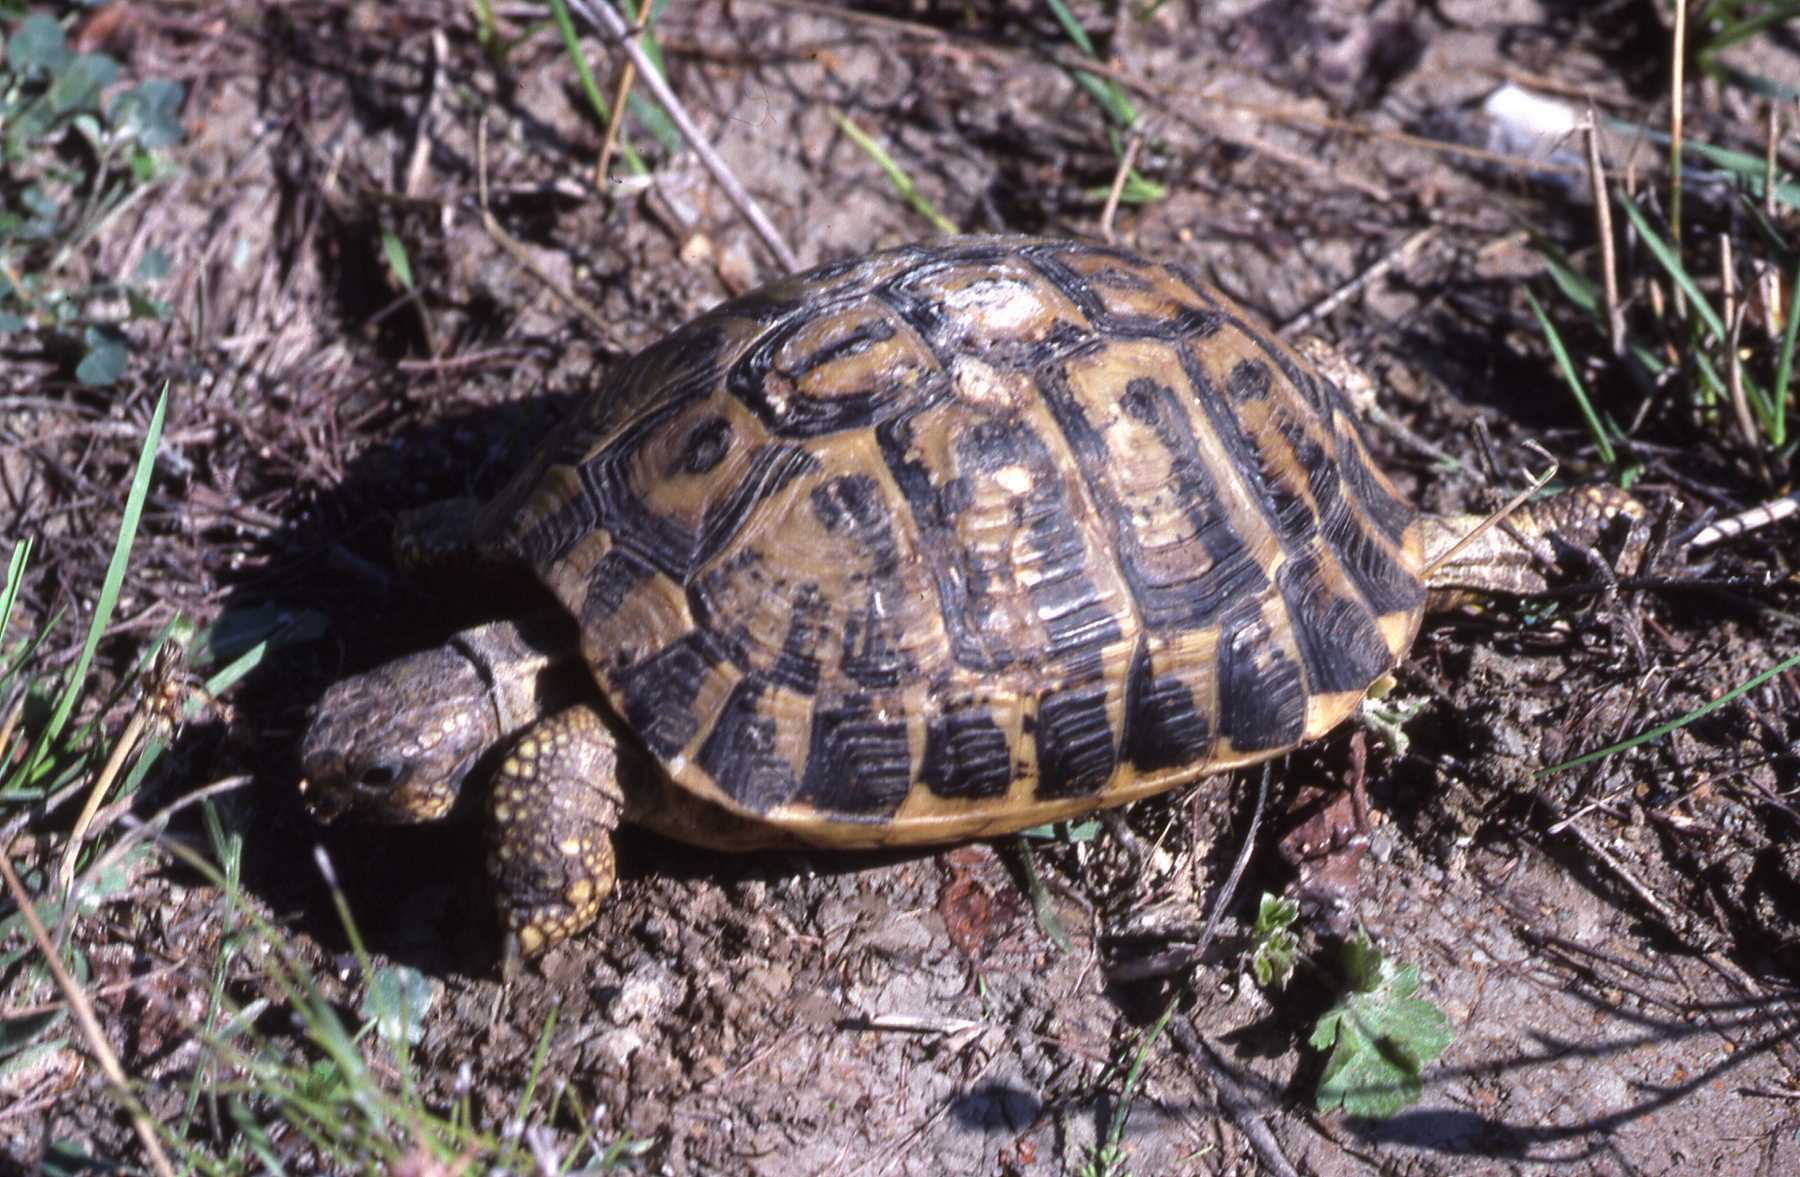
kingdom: Animalia
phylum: Chordata
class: Testudines
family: Testudinidae
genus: Testudo
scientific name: Testudo hermanni
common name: Hermann's tortoise
